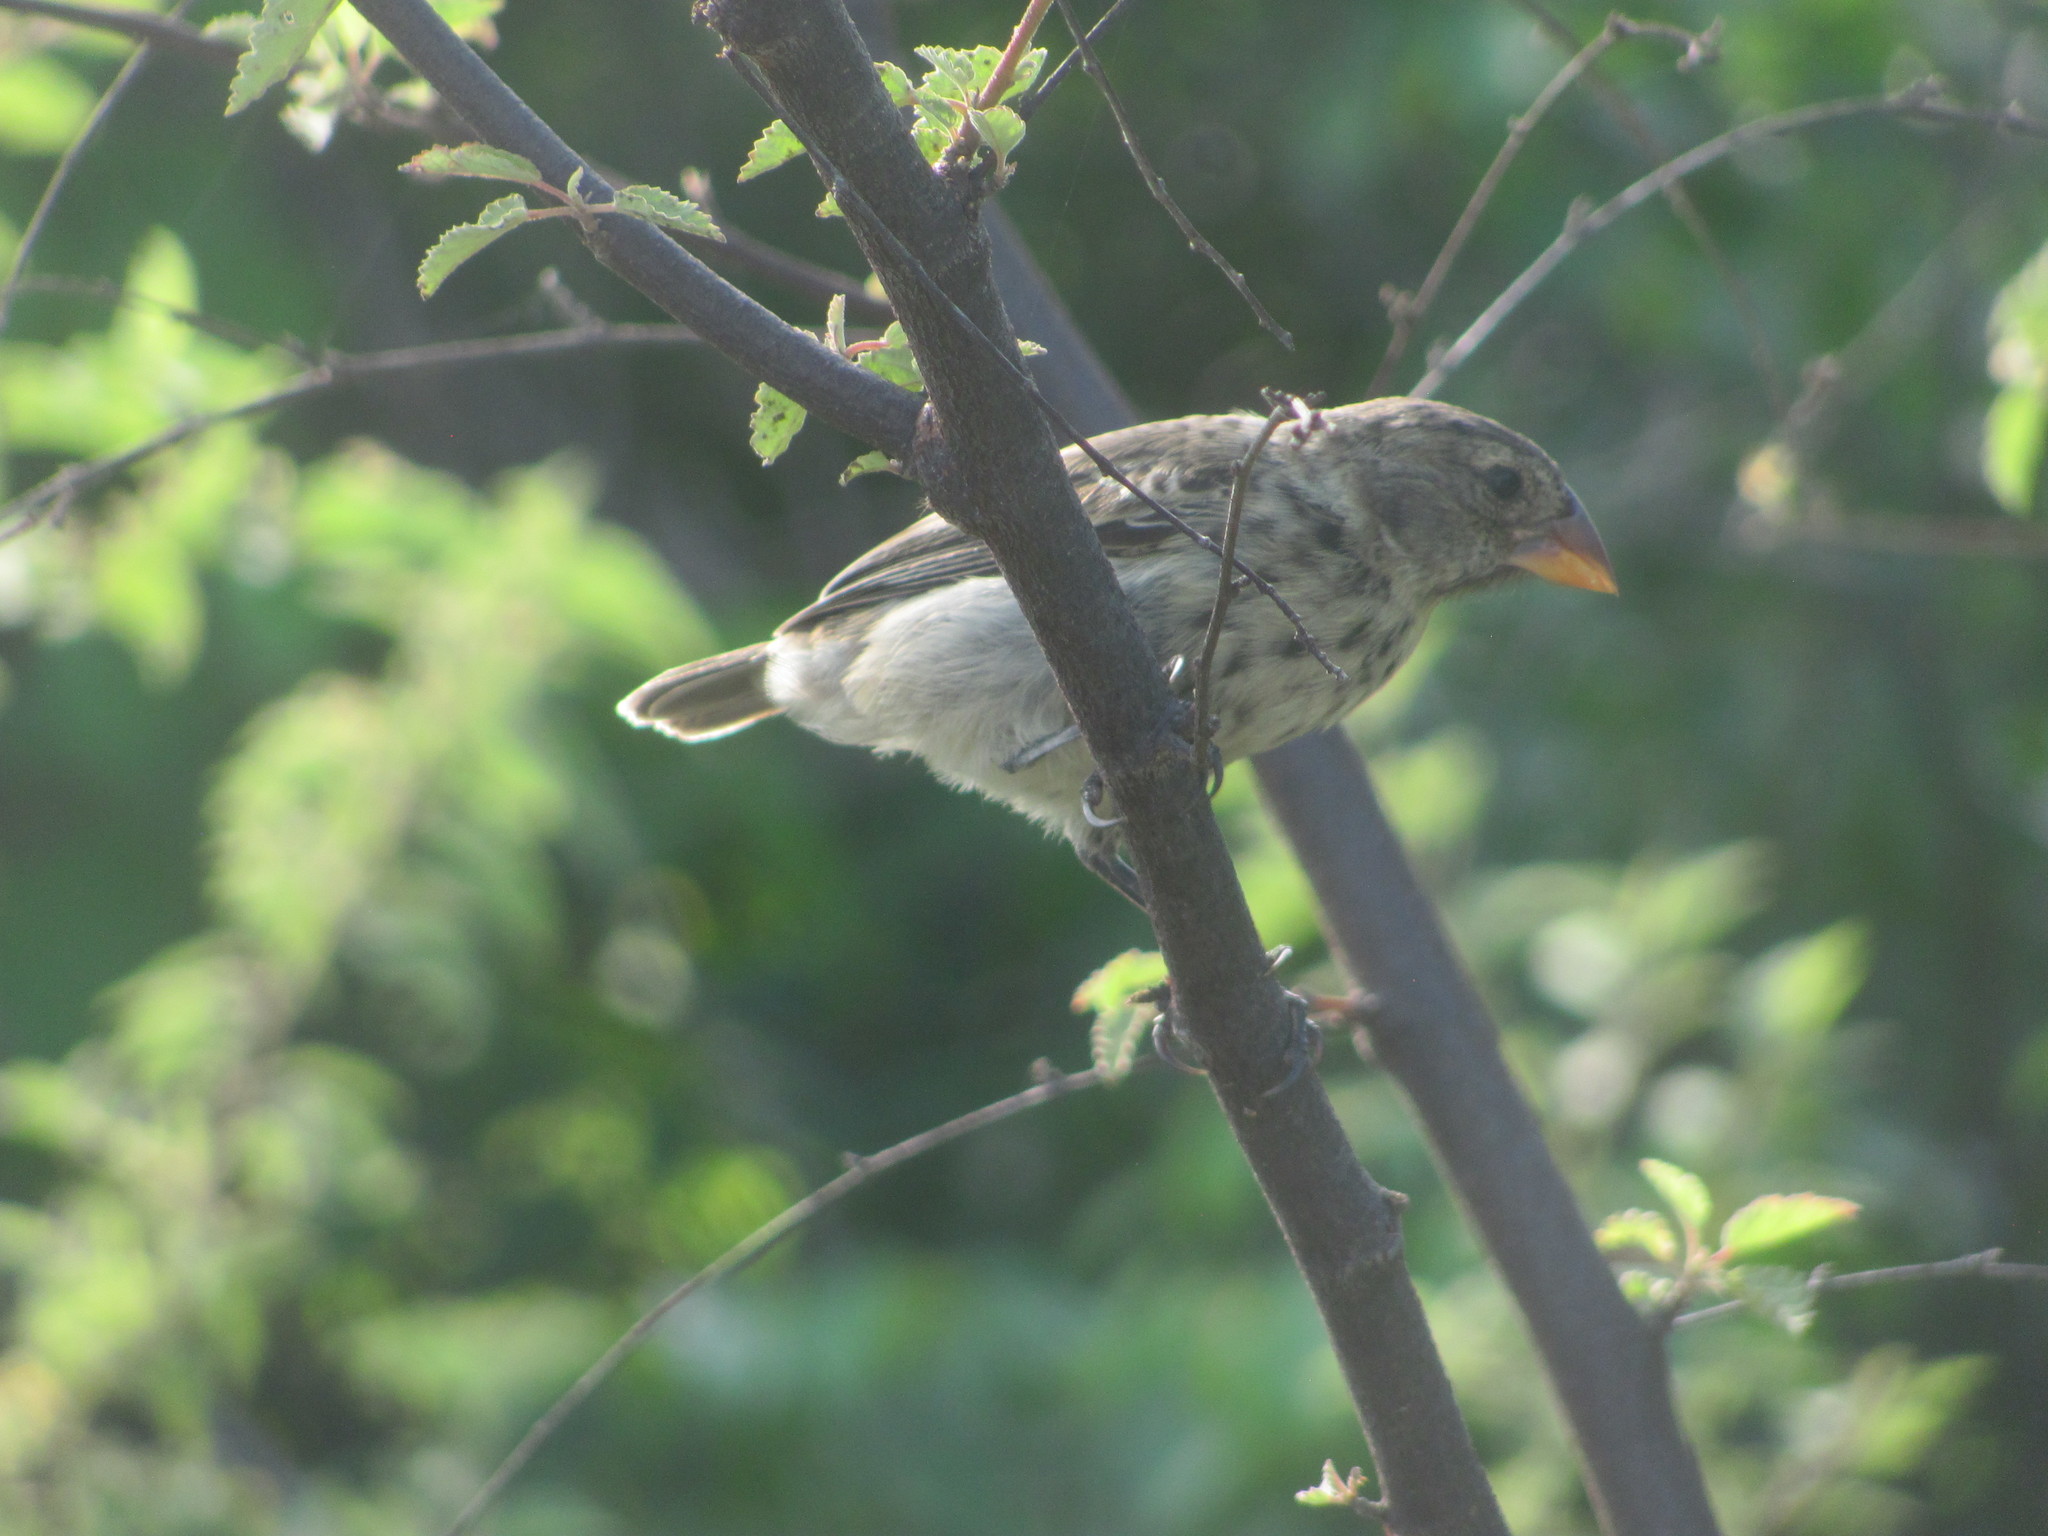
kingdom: Animalia
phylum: Chordata
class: Aves
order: Passeriformes
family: Thraupidae
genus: Geospiza
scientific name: Geospiza fortis
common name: Medium ground finch
